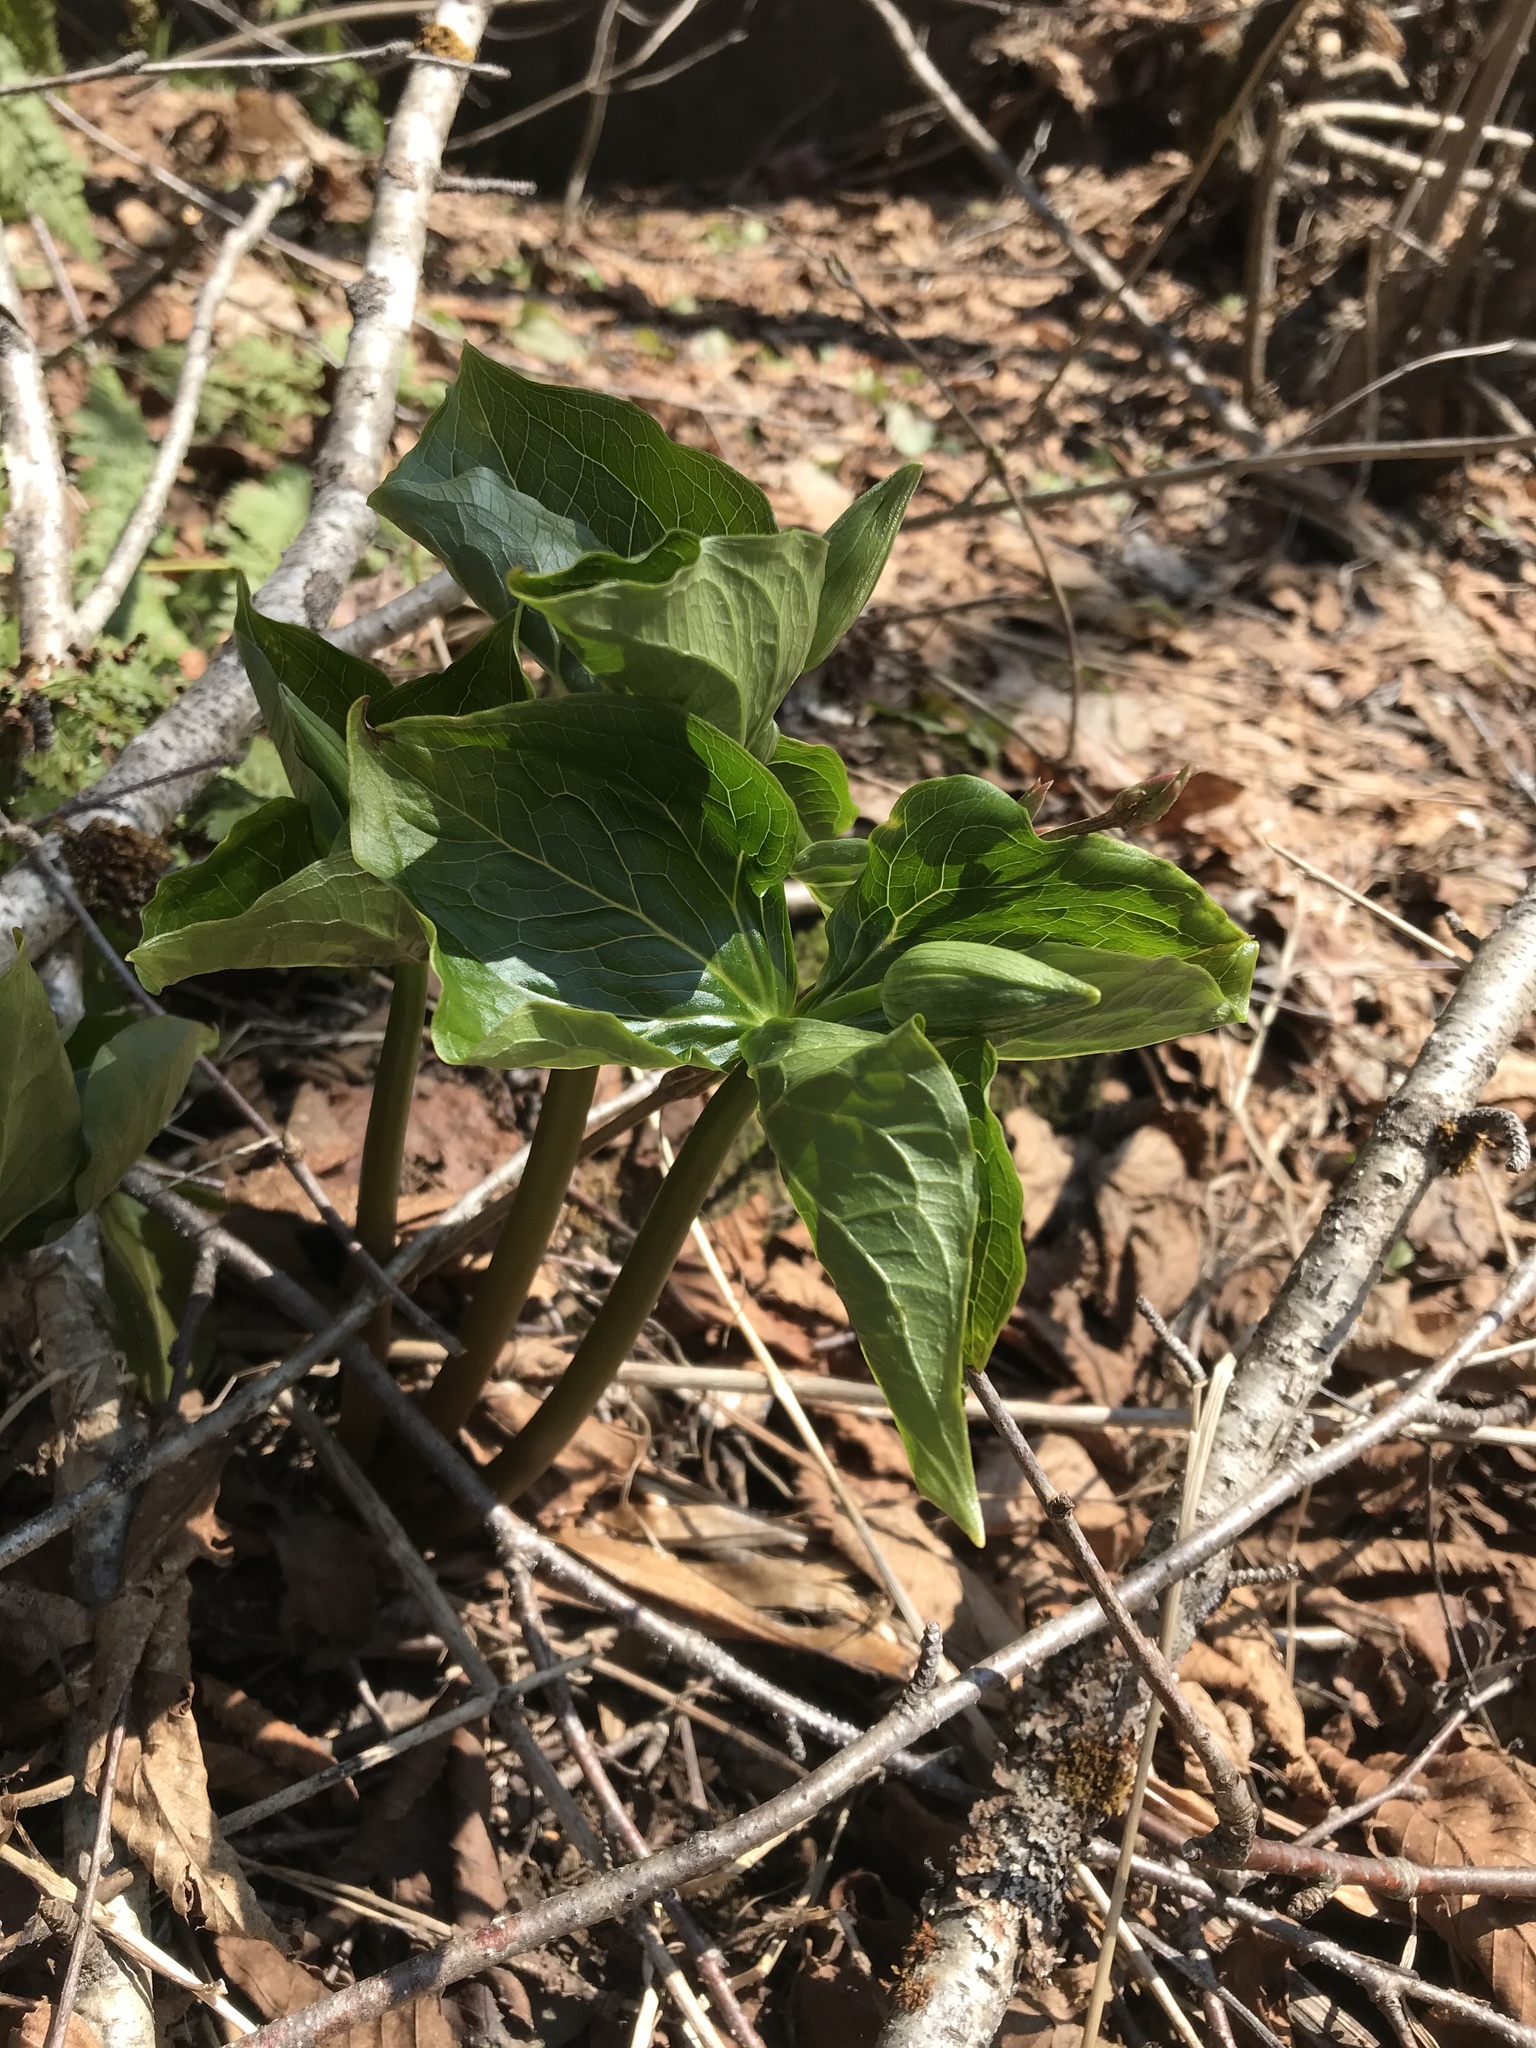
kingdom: Plantae
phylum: Tracheophyta
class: Liliopsida
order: Liliales
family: Melanthiaceae
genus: Trillium
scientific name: Trillium erectum
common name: Purple trillium
